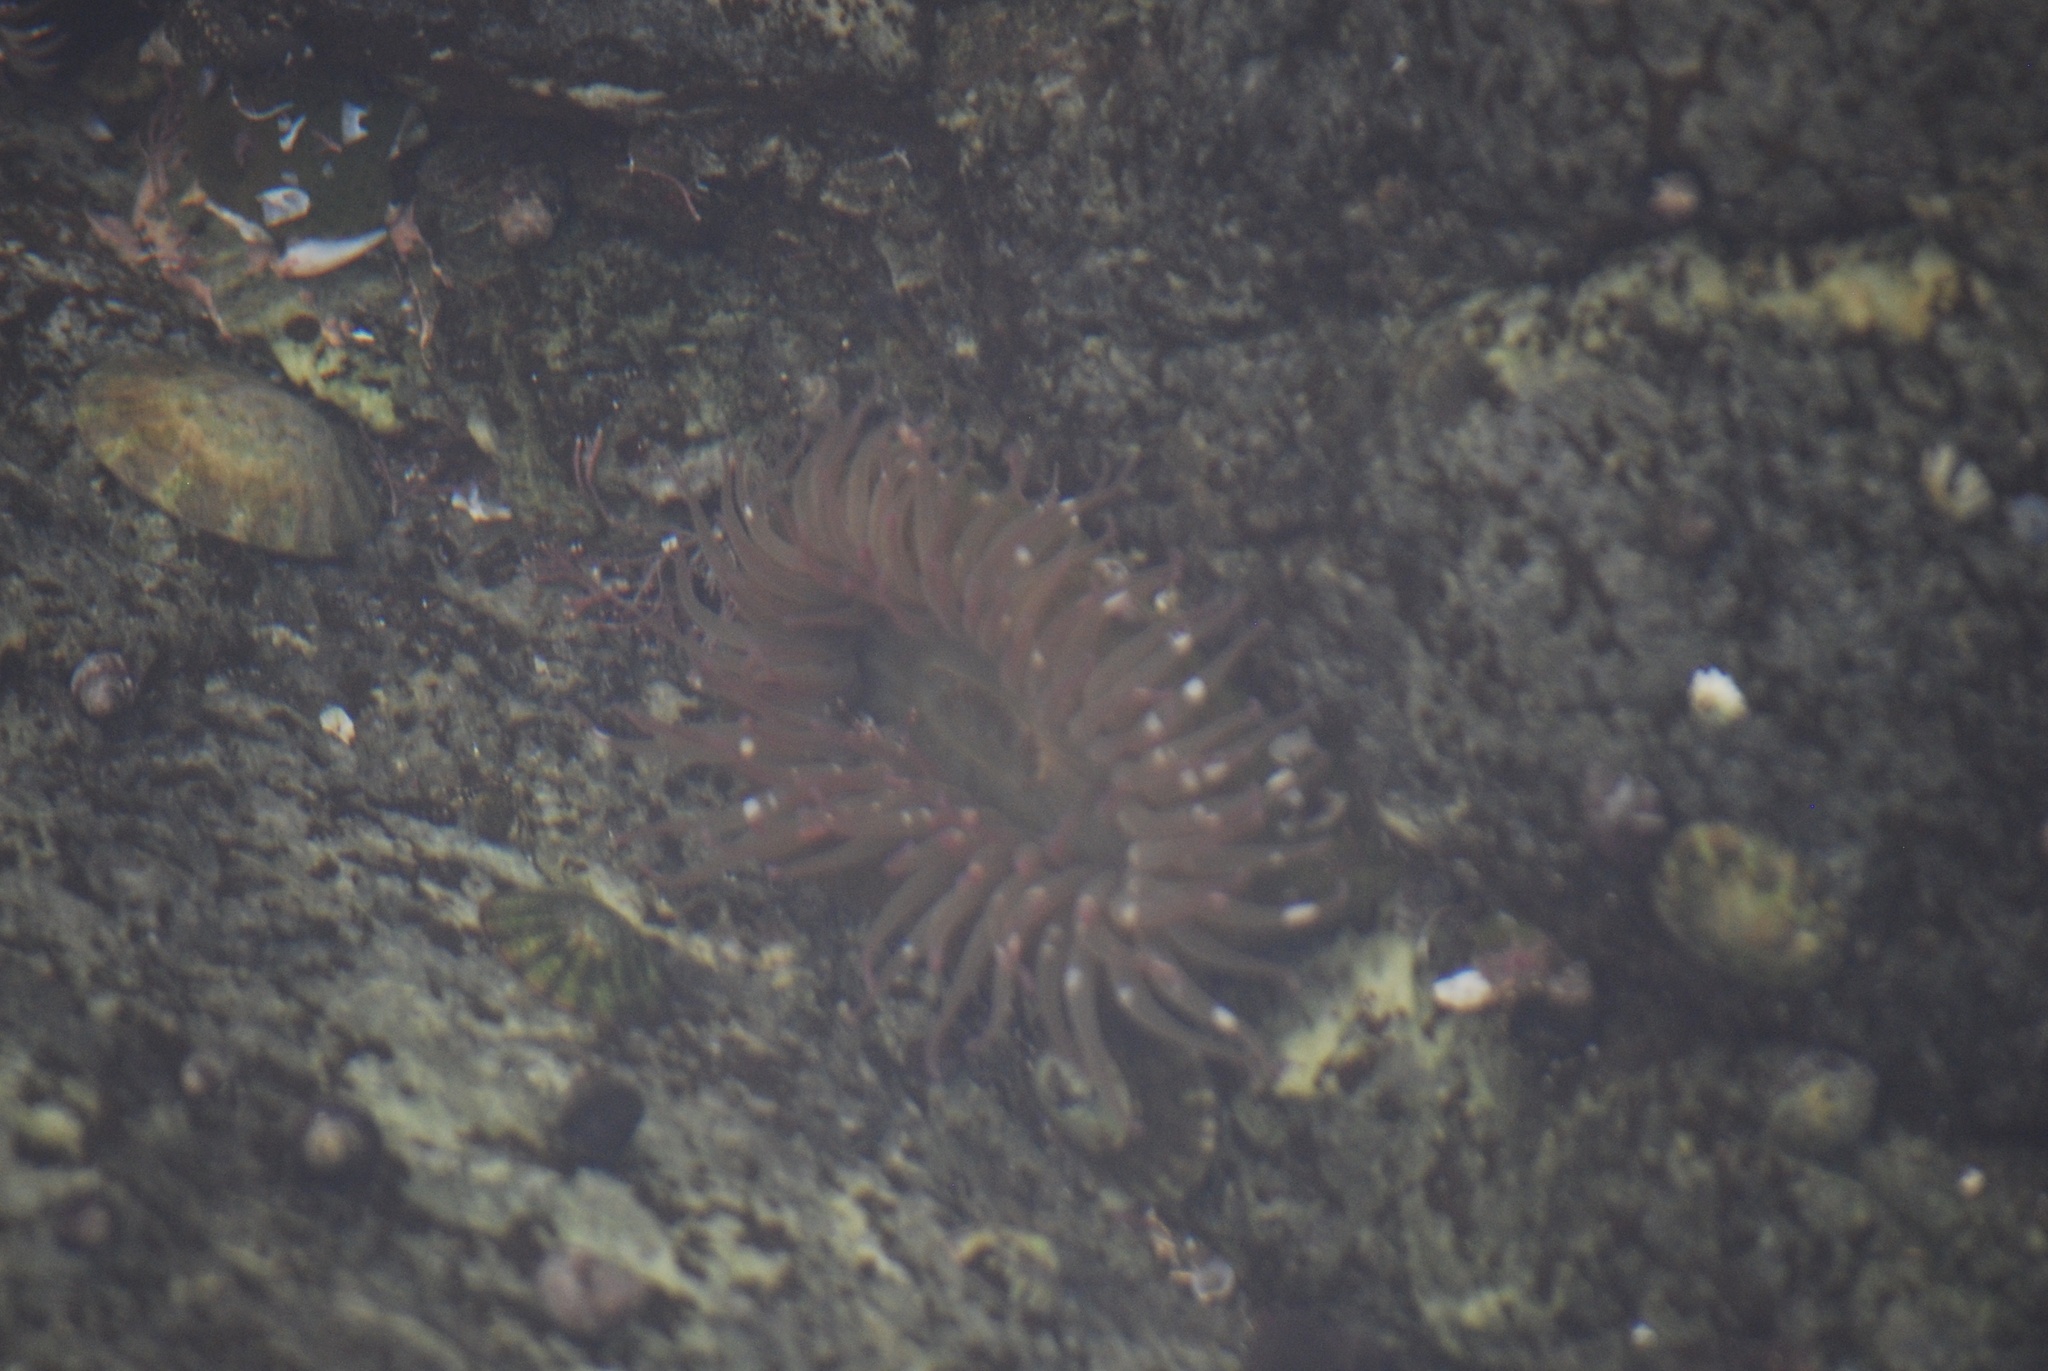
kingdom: Animalia
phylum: Cnidaria
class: Anthozoa
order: Actiniaria
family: Actiniidae
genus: Anthopleura
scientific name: Anthopleura elegantissima
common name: Clonal anemone
